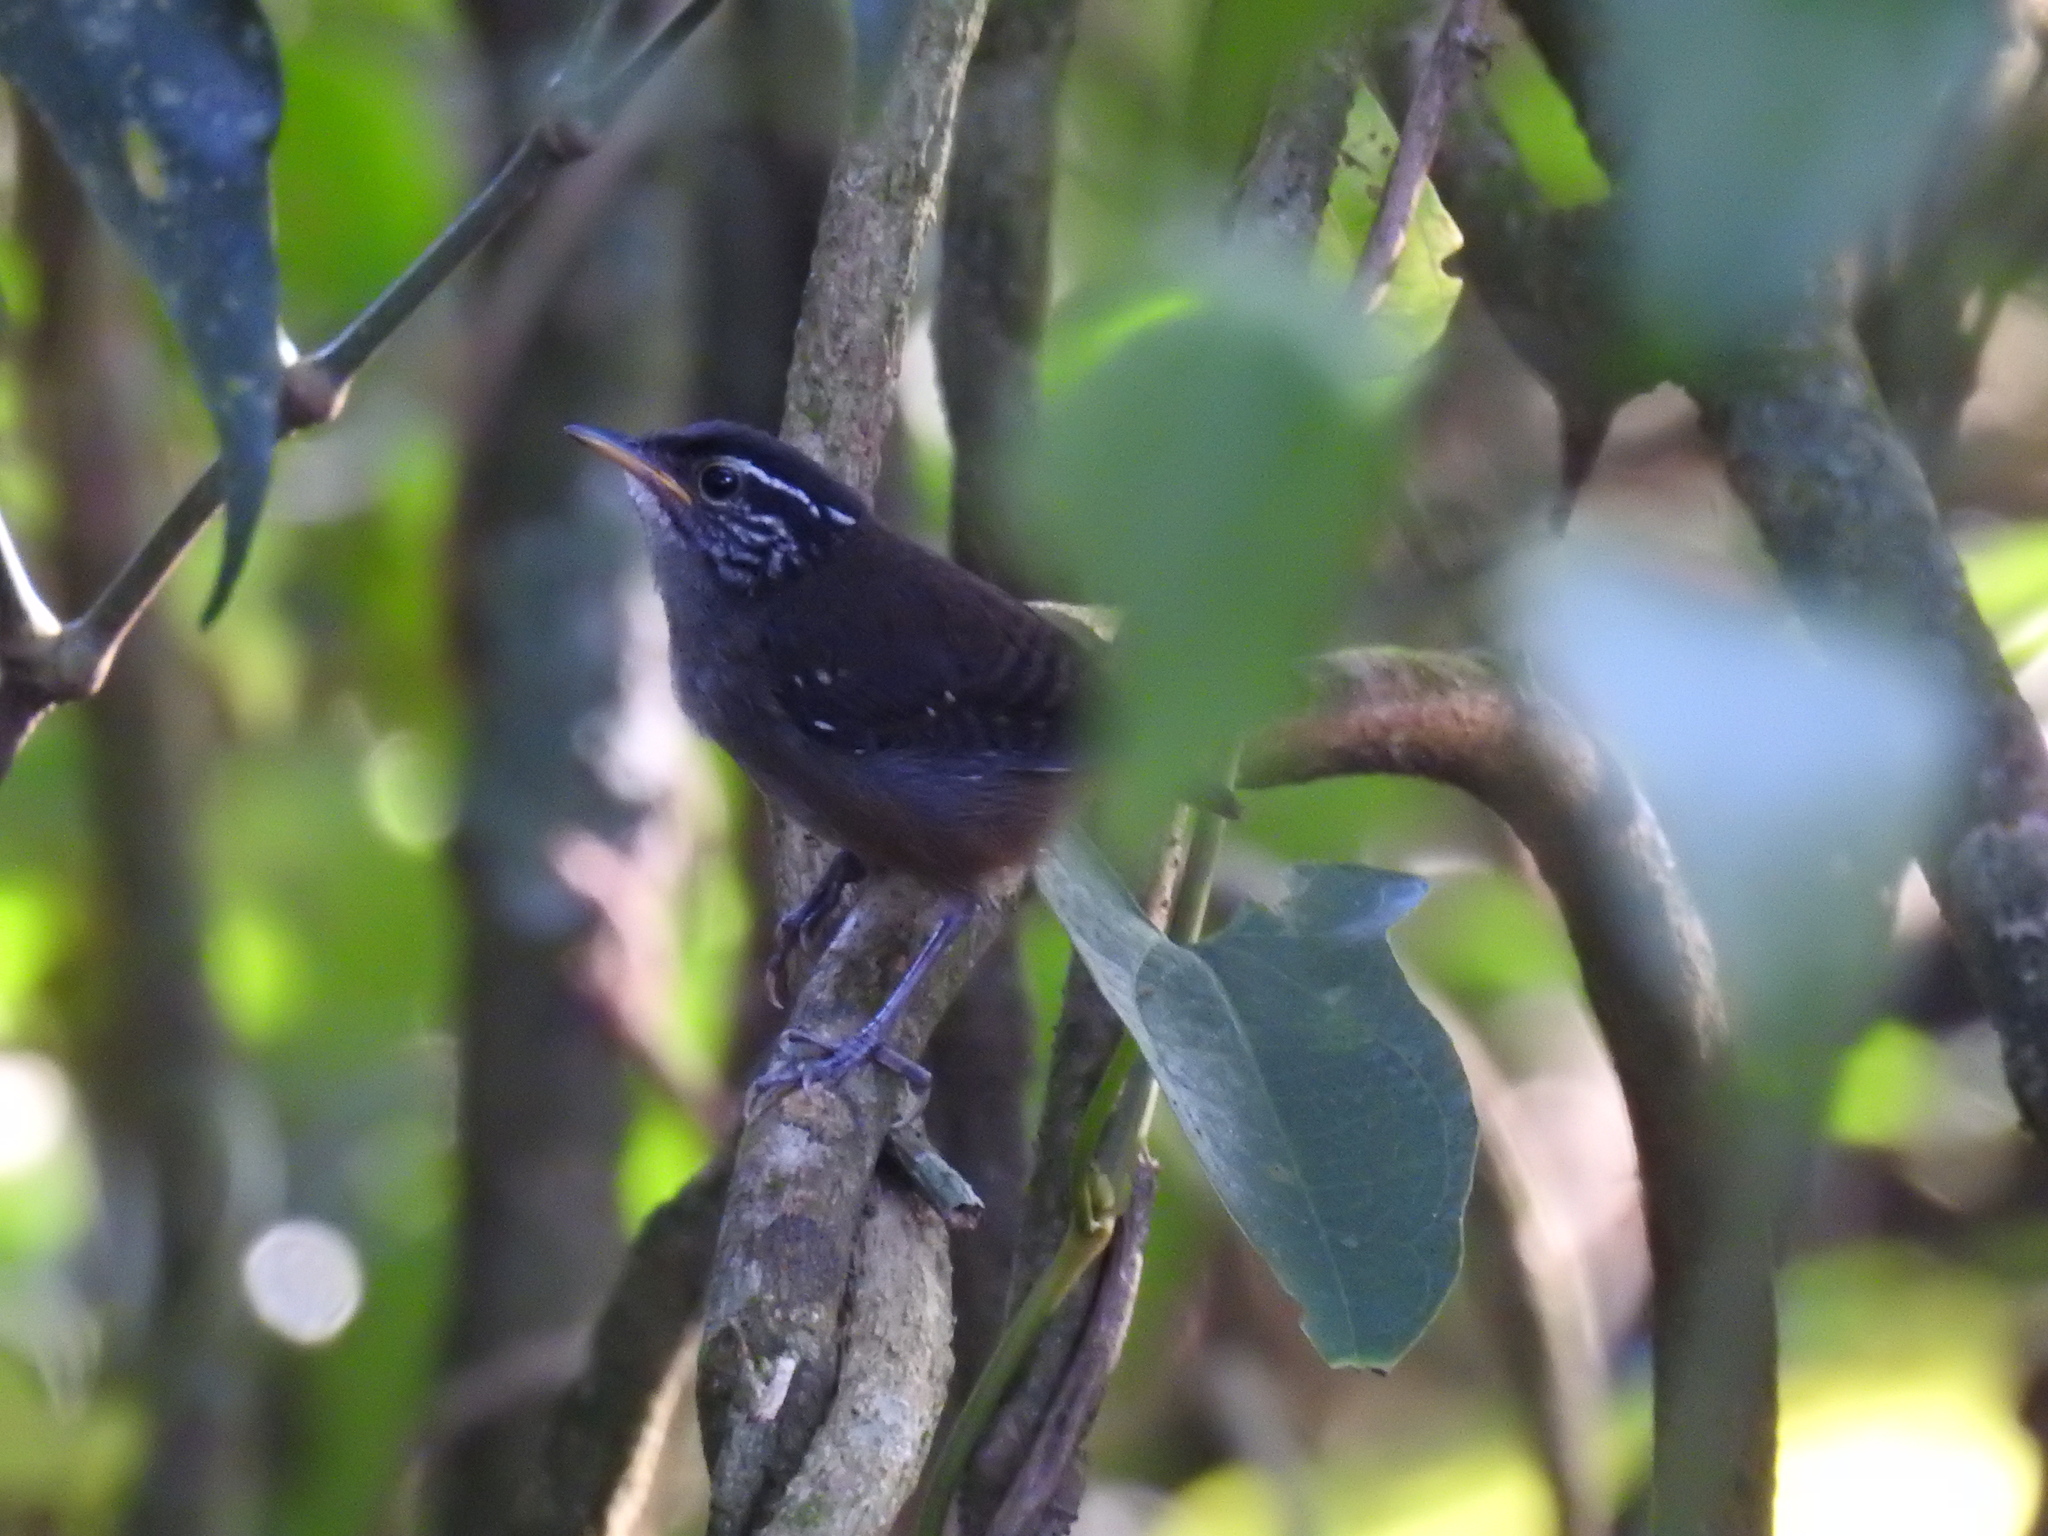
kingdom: Animalia
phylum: Chordata
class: Aves
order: Passeriformes
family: Troglodytidae
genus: Henicorhina
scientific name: Henicorhina leucosticta
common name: White-breasted wood-wren
